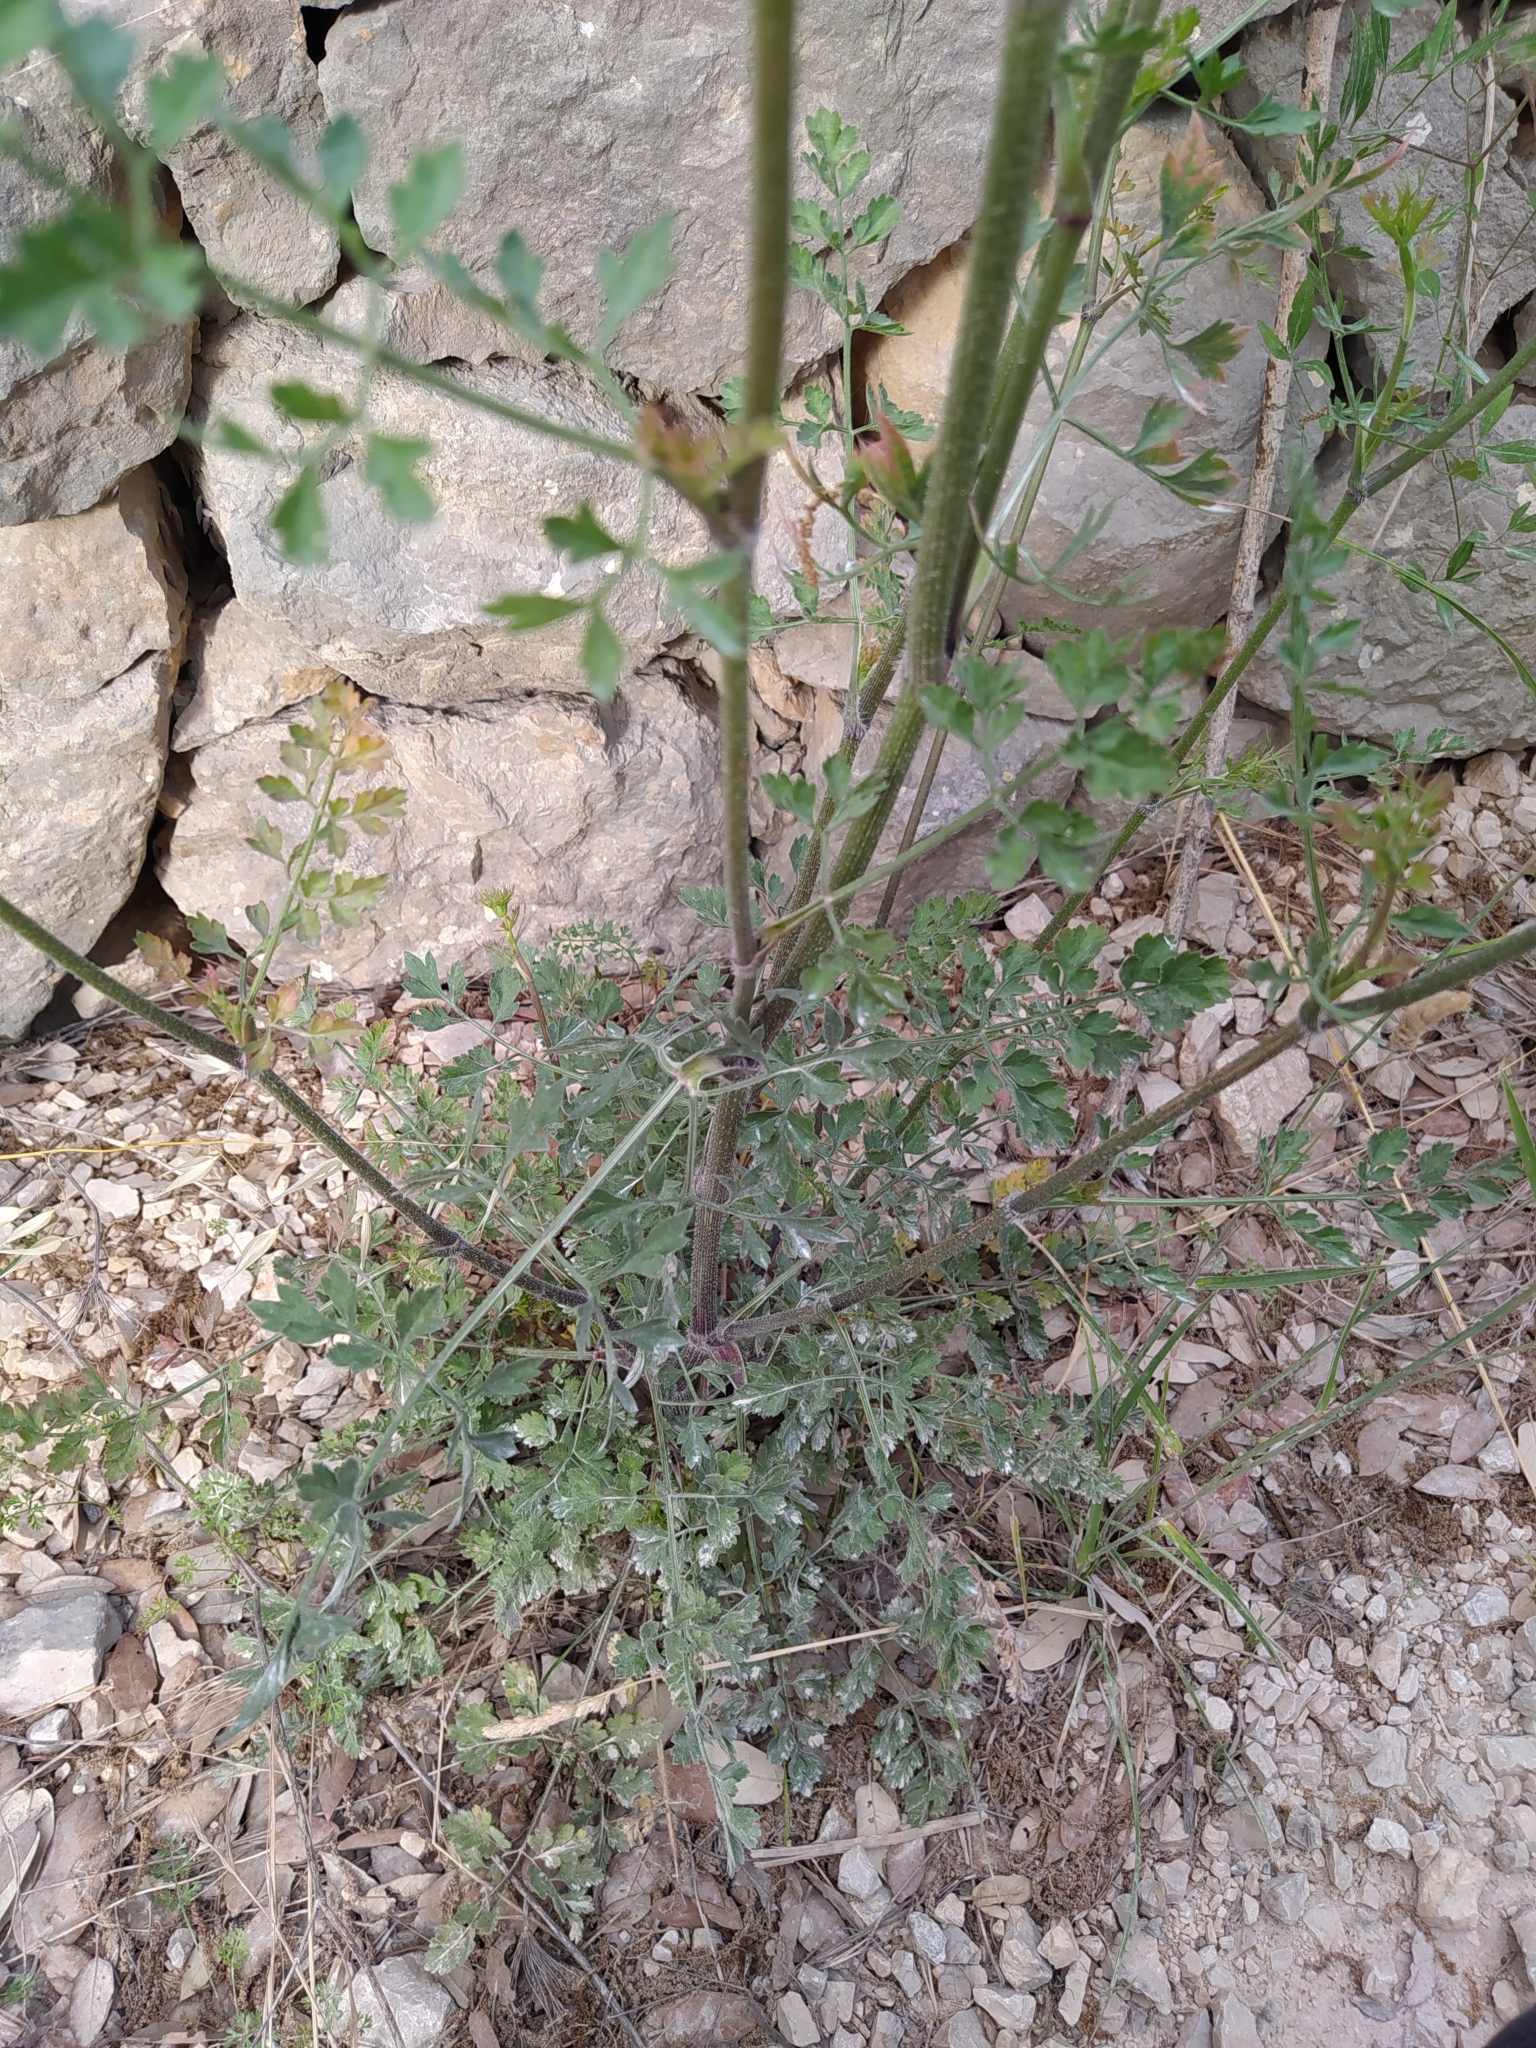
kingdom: Plantae
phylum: Tracheophyta
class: Magnoliopsida
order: Apiales
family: Apiaceae
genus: Daucus
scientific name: Daucus carota
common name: Wild carrot
